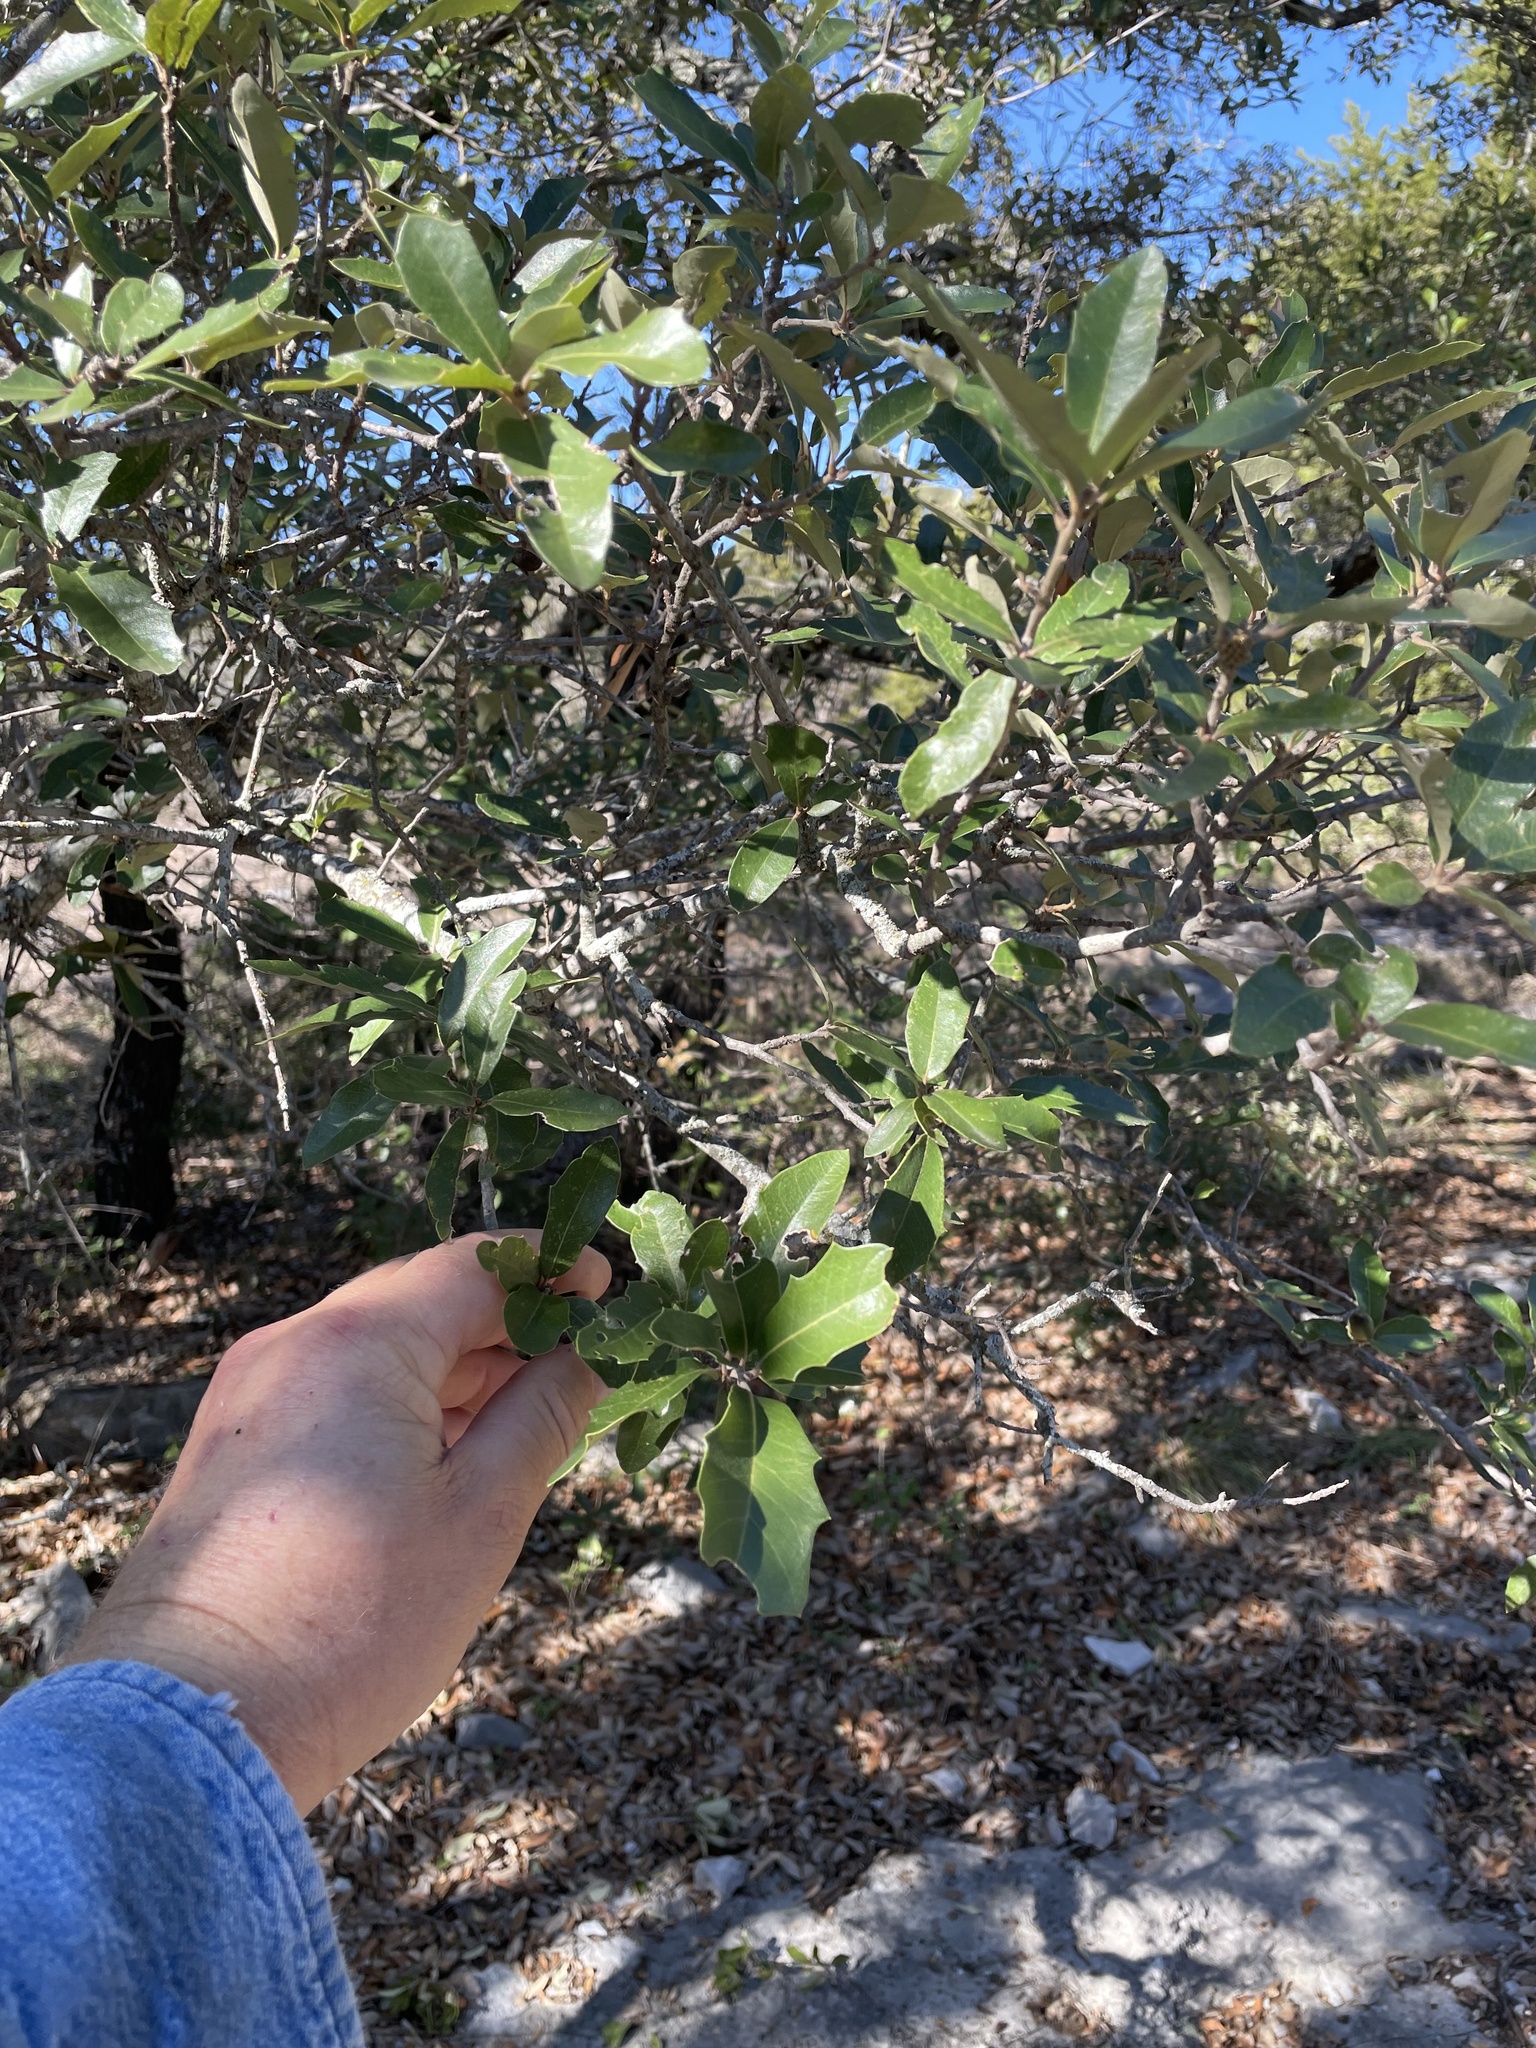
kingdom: Plantae
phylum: Tracheophyta
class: Magnoliopsida
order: Fagales
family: Fagaceae
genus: Quercus
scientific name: Quercus fusiformis
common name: Texas live oak
